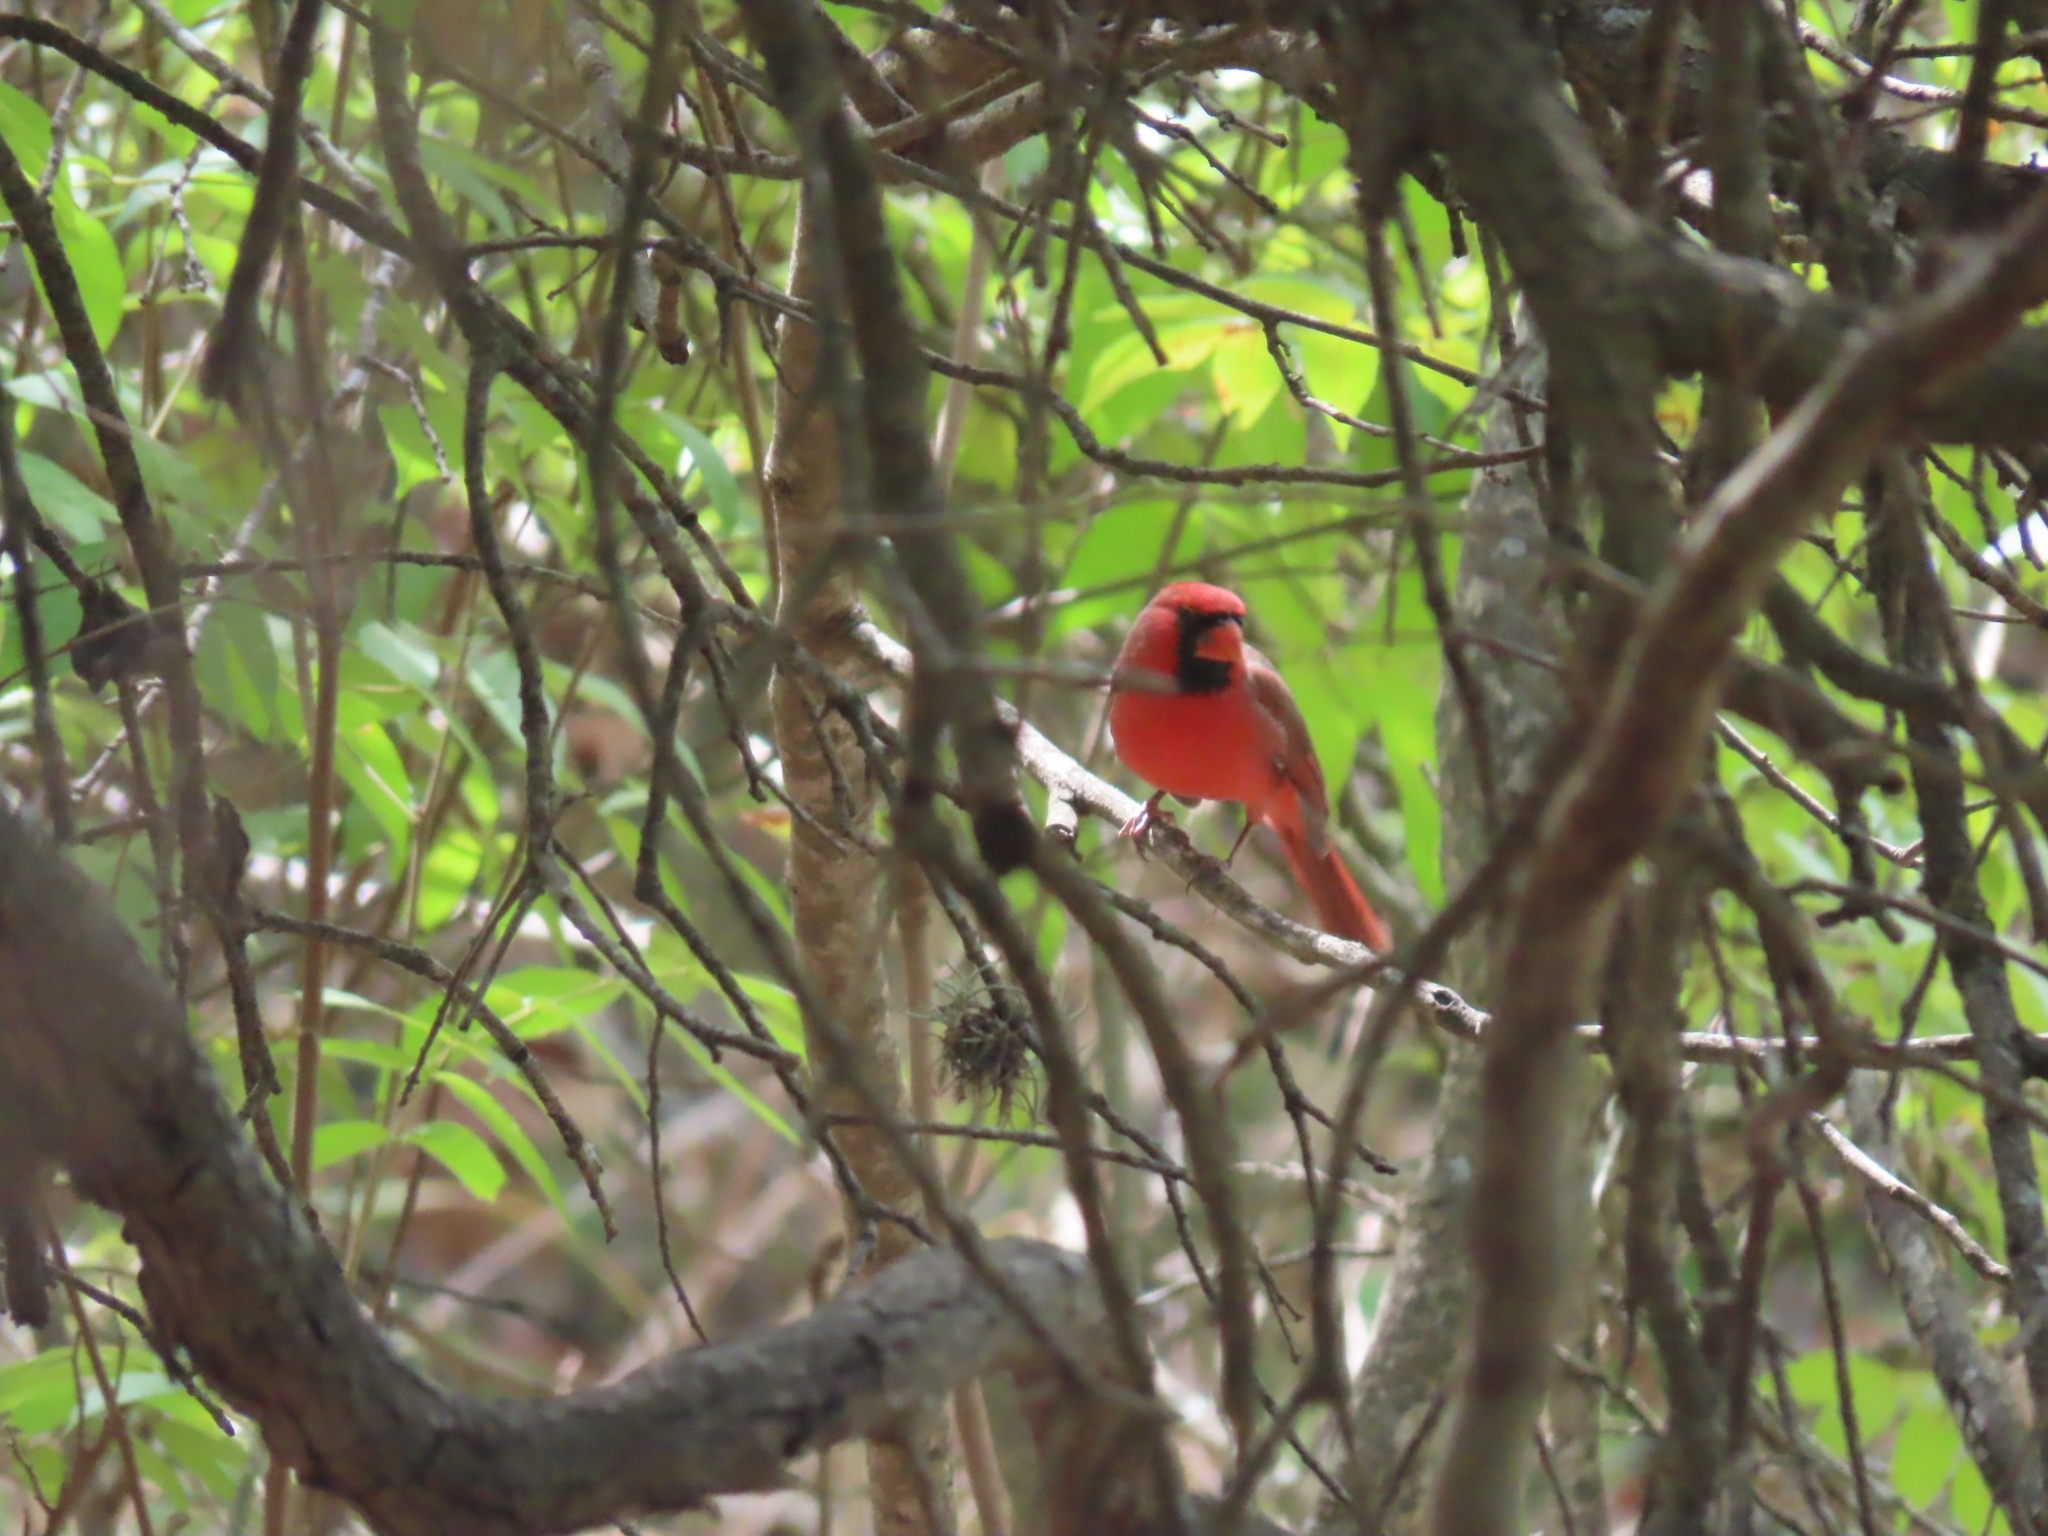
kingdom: Animalia
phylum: Chordata
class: Aves
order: Passeriformes
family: Cardinalidae
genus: Cardinalis
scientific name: Cardinalis cardinalis
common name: Northern cardinal
